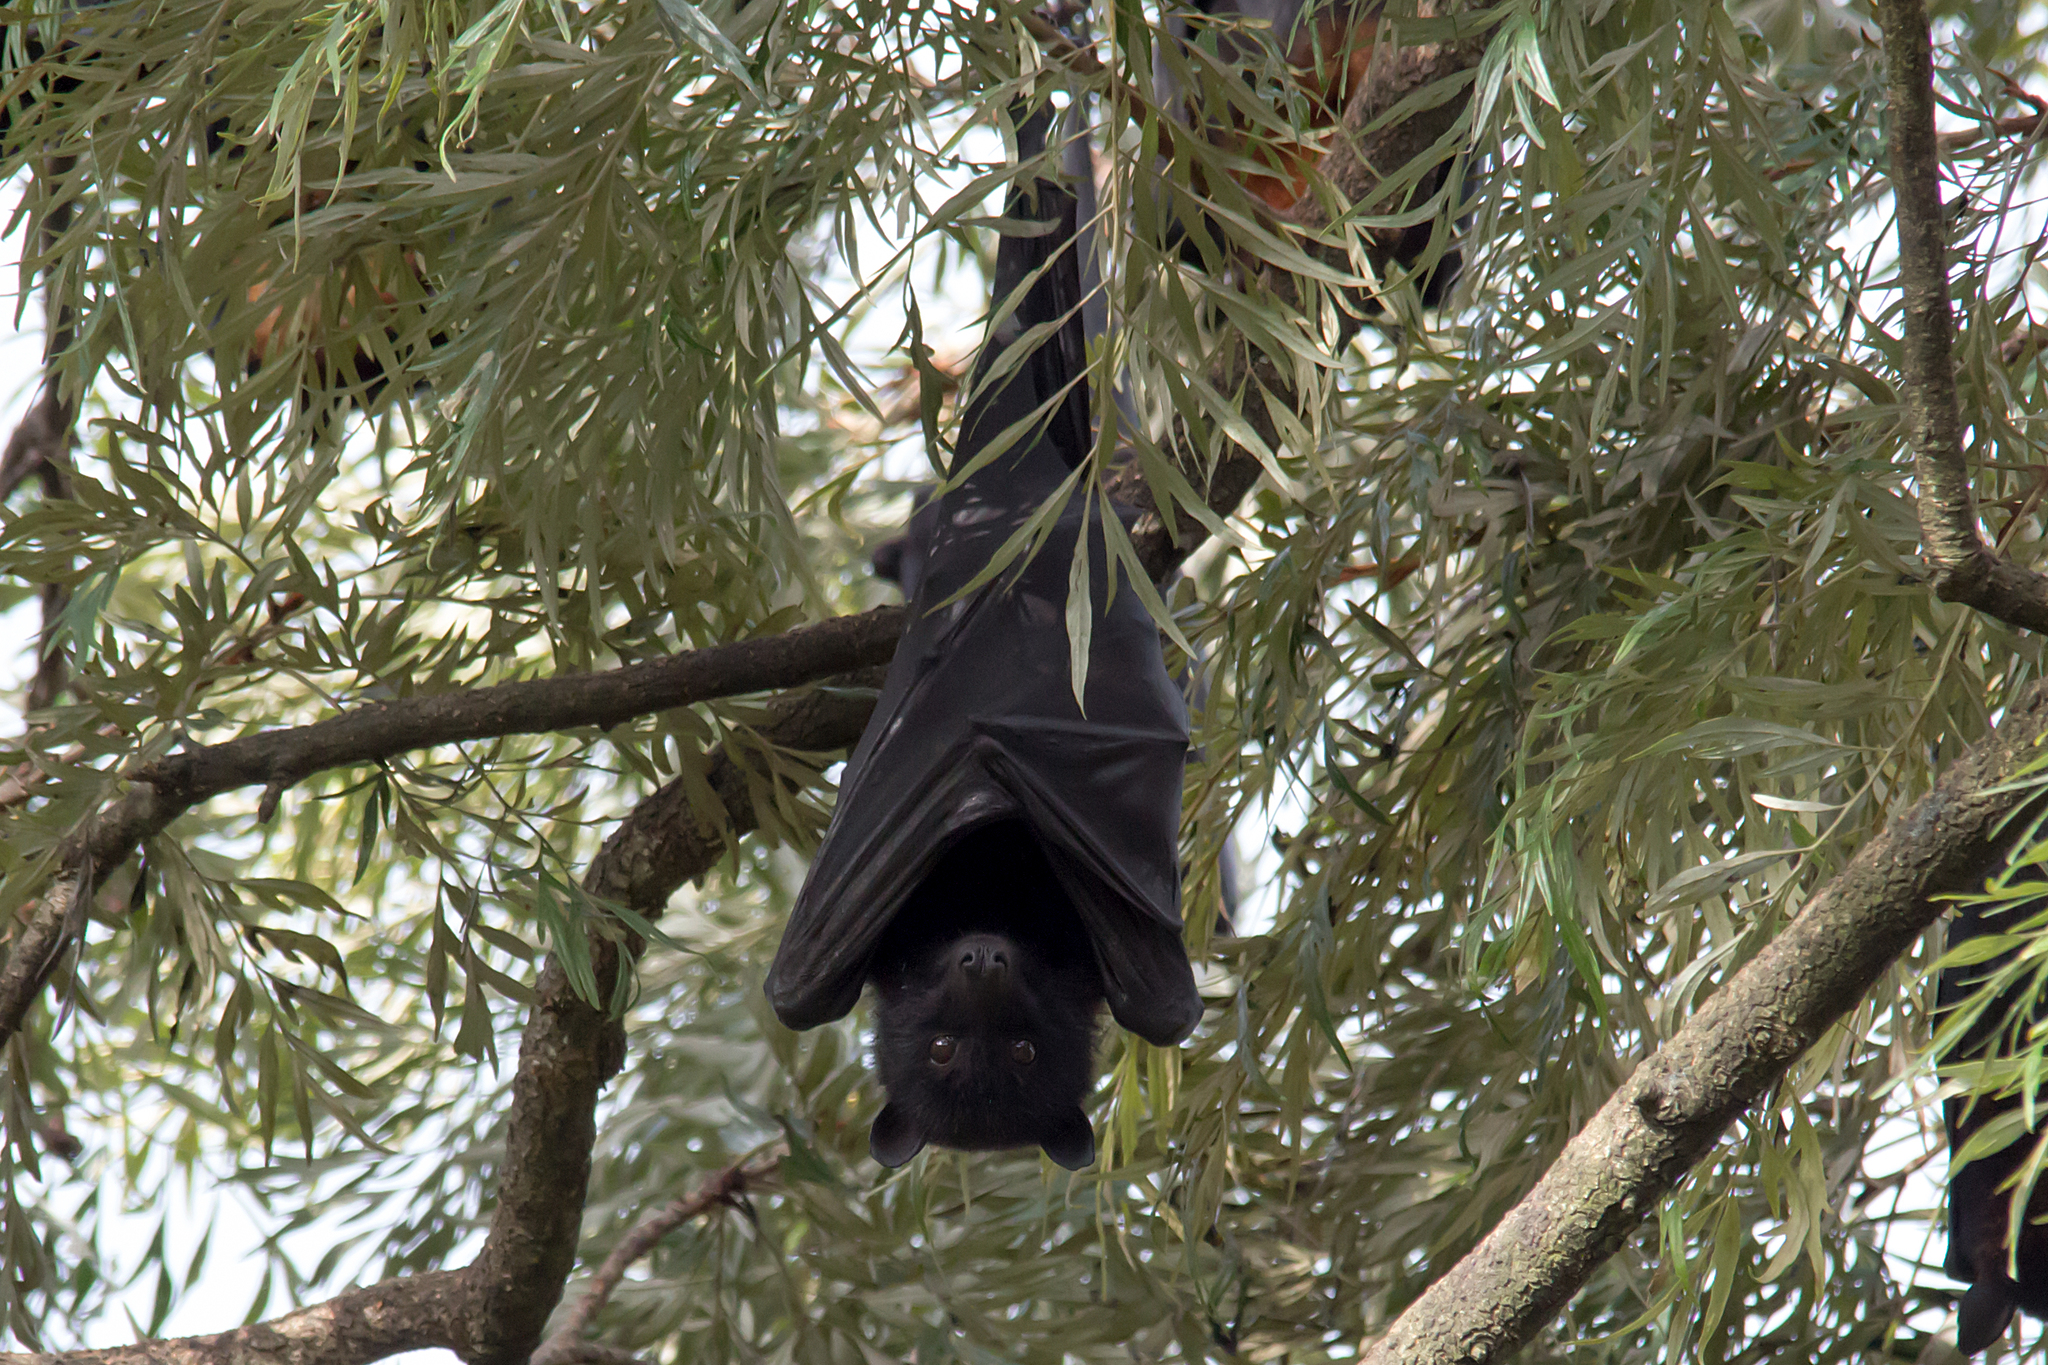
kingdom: Animalia
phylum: Chordata
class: Mammalia
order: Chiroptera
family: Pteropodidae
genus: Pteropus
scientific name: Pteropus alecto
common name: Black flying fox
